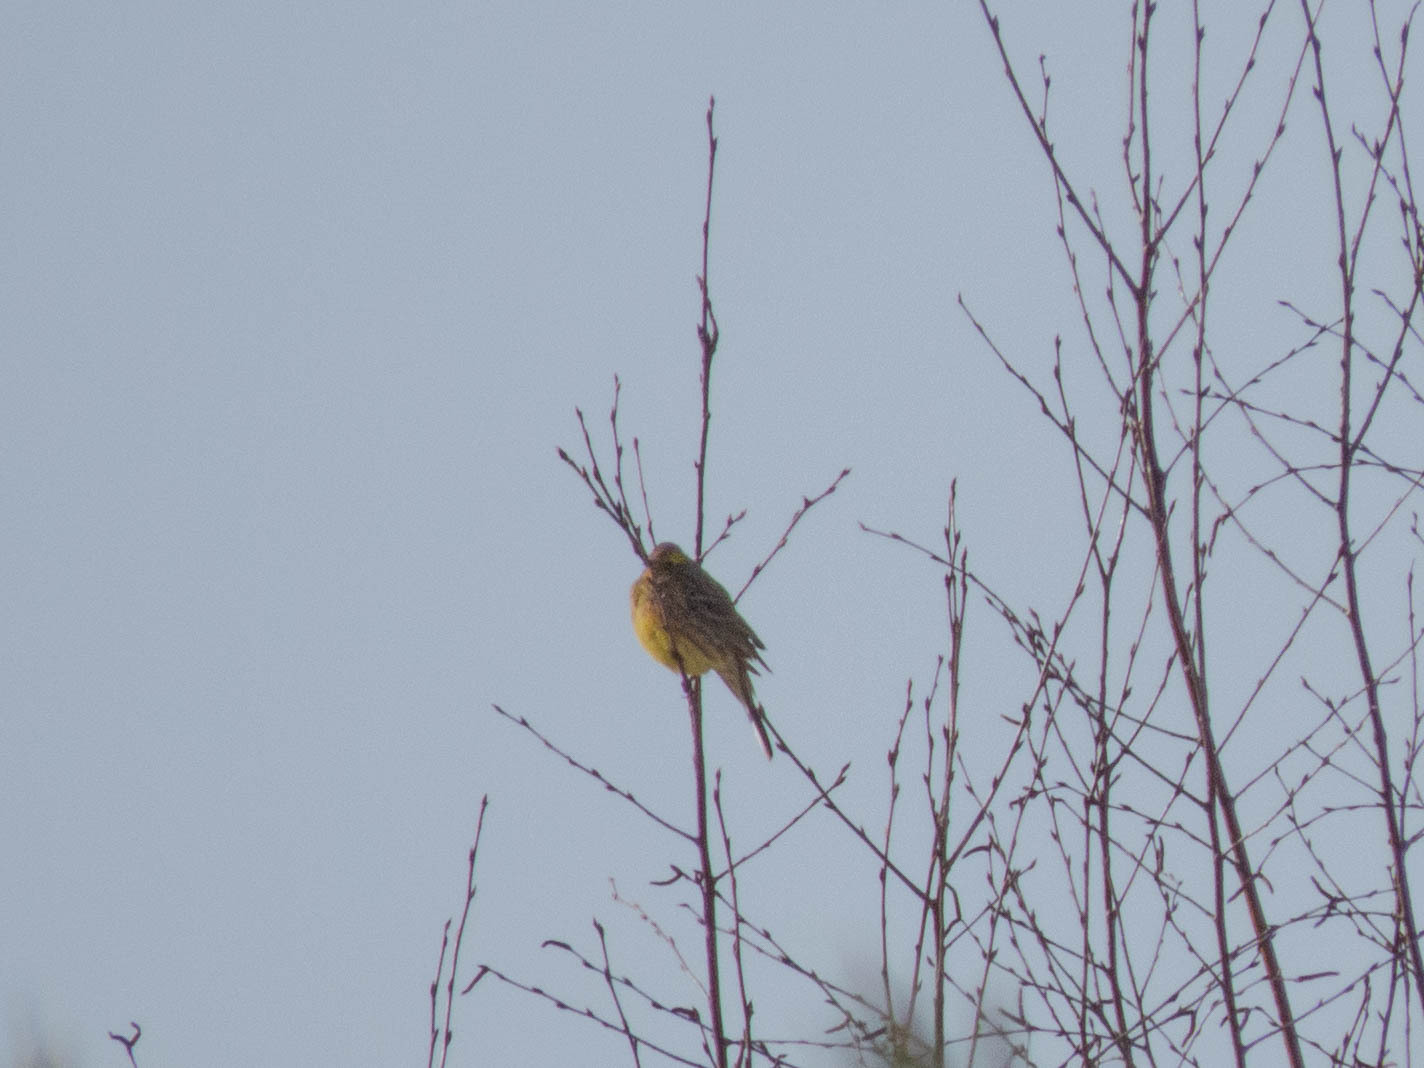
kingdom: Animalia
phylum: Chordata
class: Aves
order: Passeriformes
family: Emberizidae
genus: Emberiza
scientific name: Emberiza citrinella
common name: Yellowhammer
